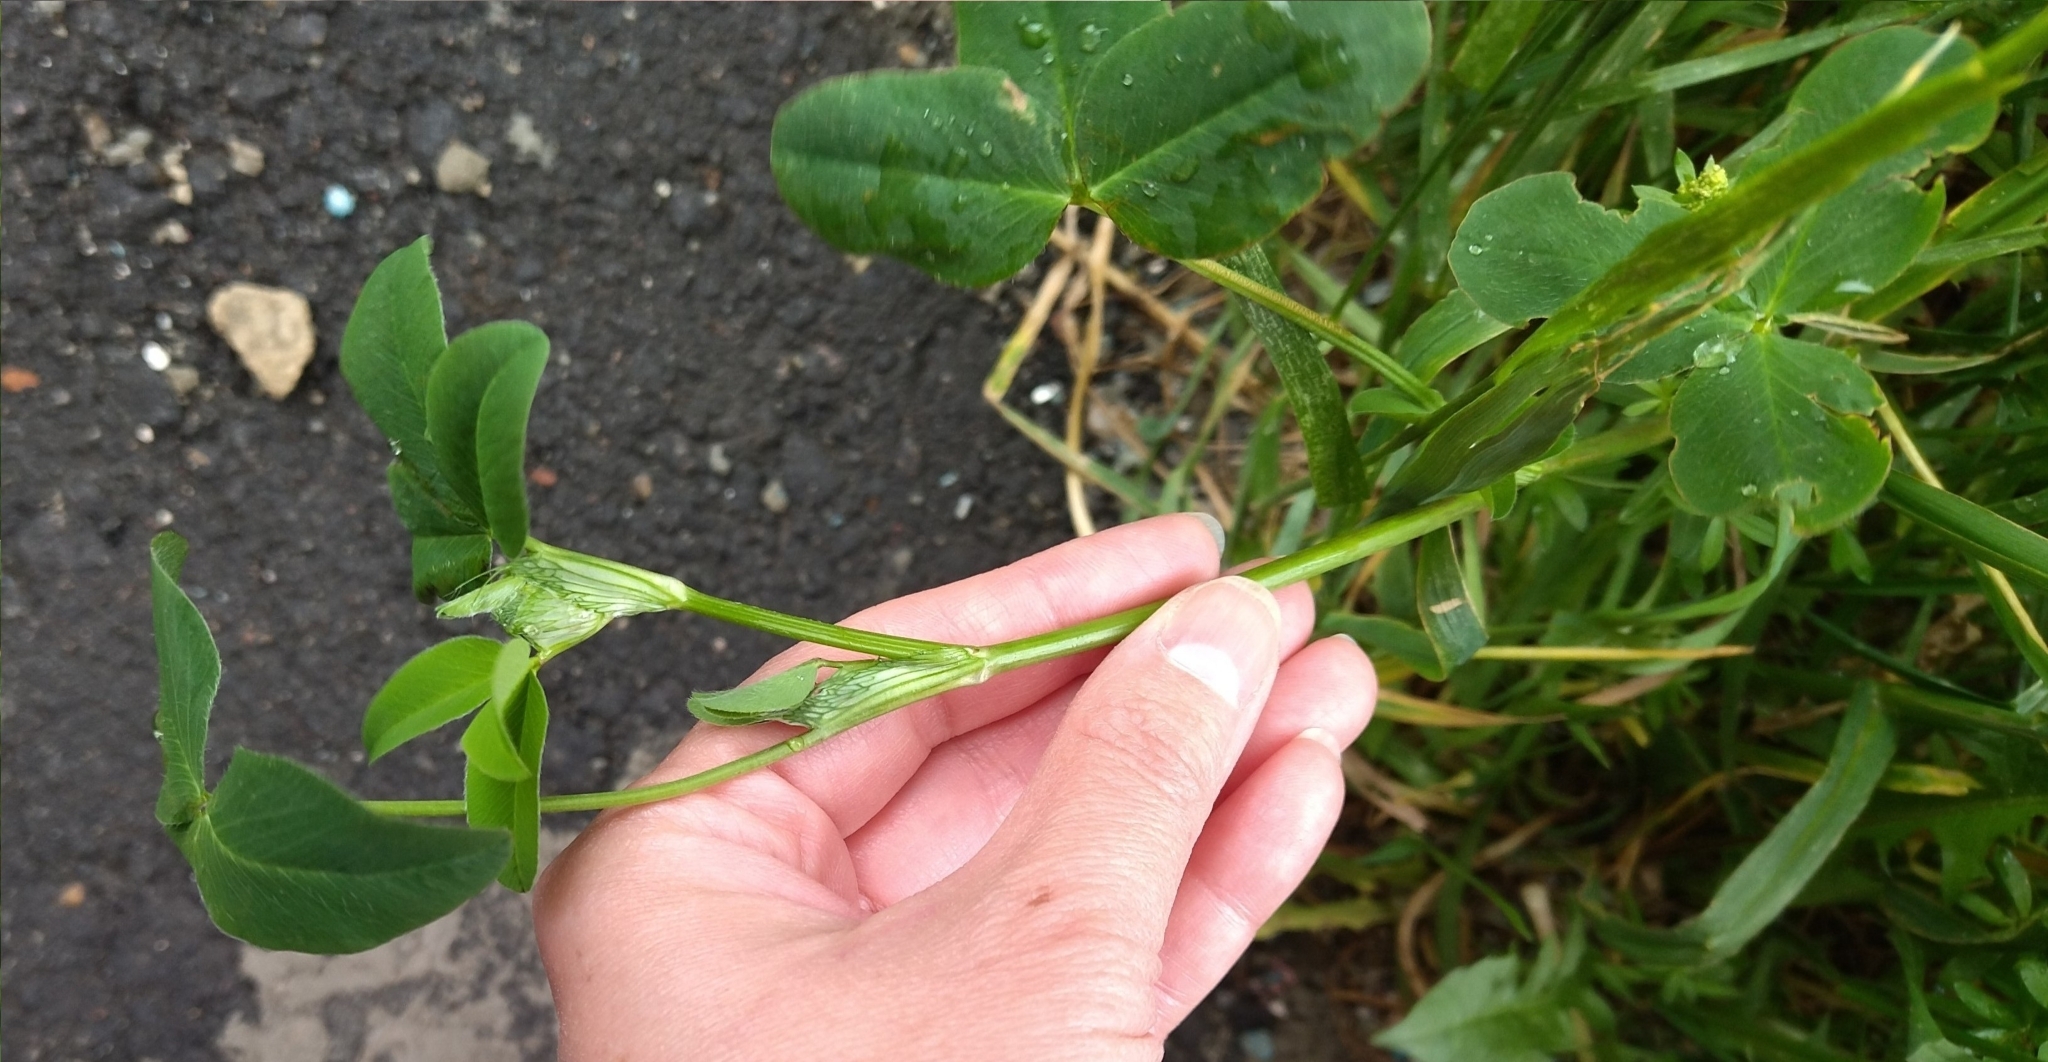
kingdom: Plantae
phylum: Tracheophyta
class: Magnoliopsida
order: Fabales
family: Fabaceae
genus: Trifolium
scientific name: Trifolium pratense
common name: Red clover
